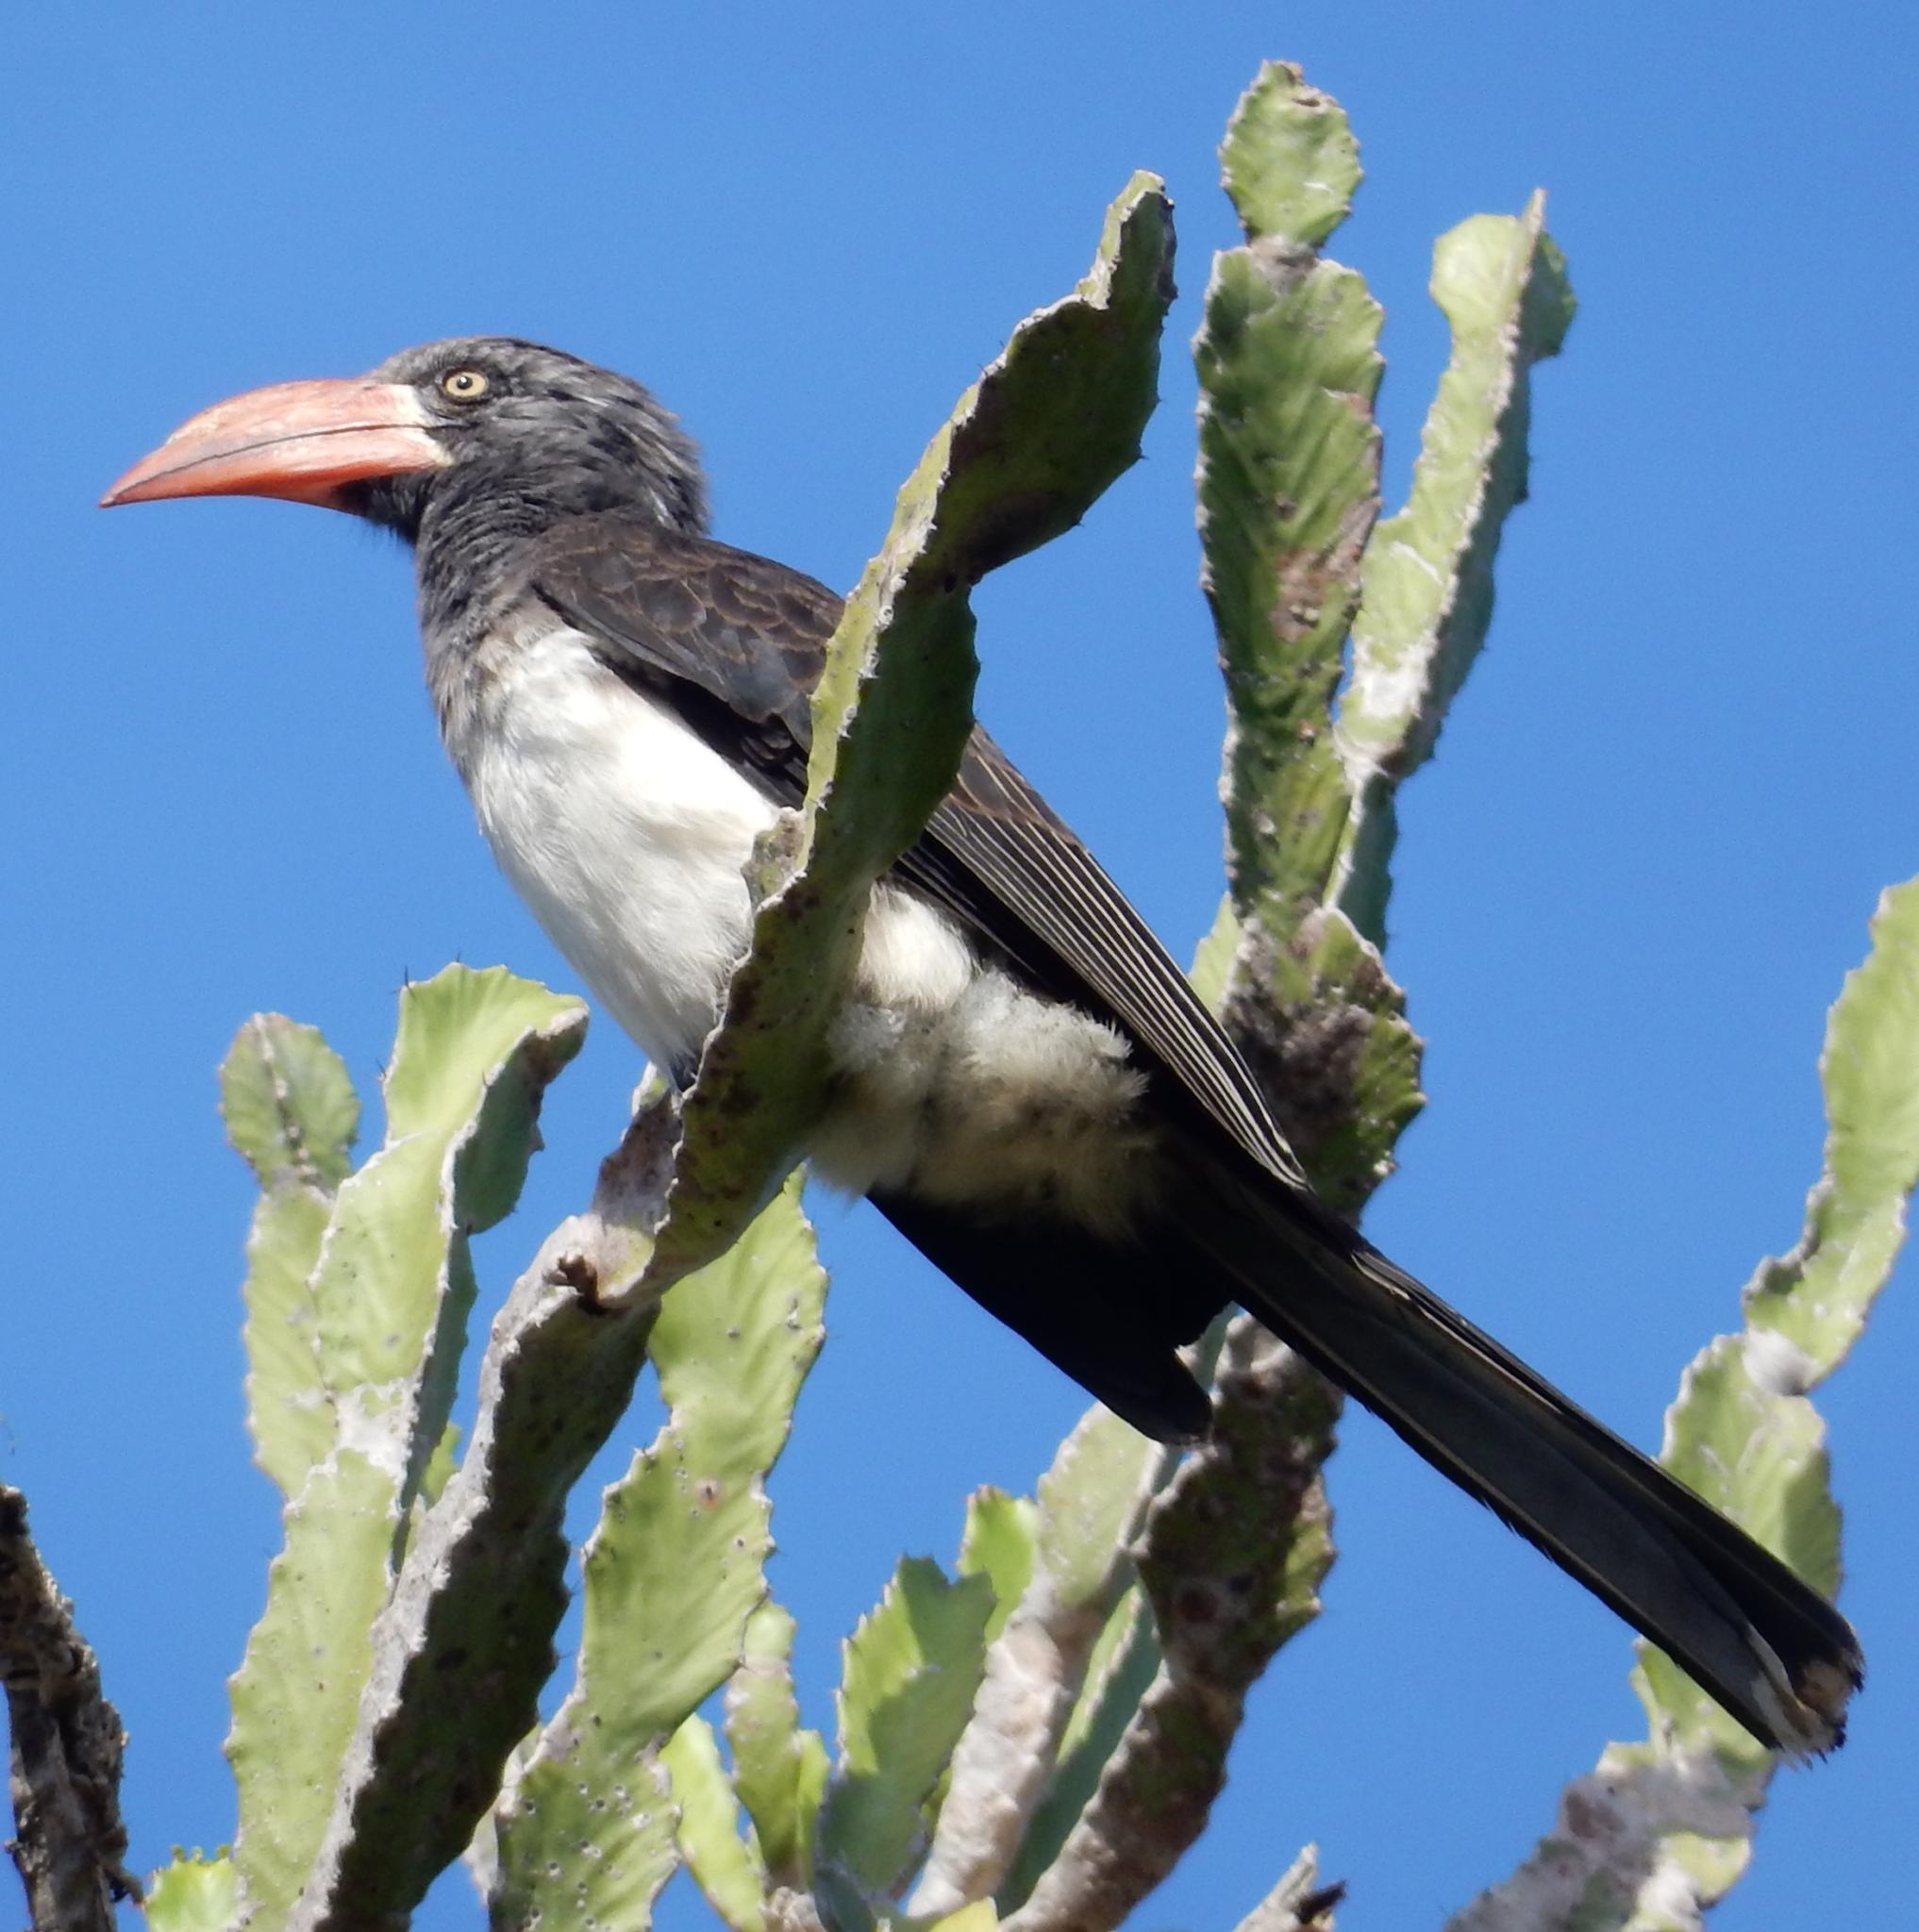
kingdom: Animalia
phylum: Chordata
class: Aves
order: Bucerotiformes
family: Bucerotidae
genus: Lophoceros
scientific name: Lophoceros alboterminatus
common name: Crowned hornbill
